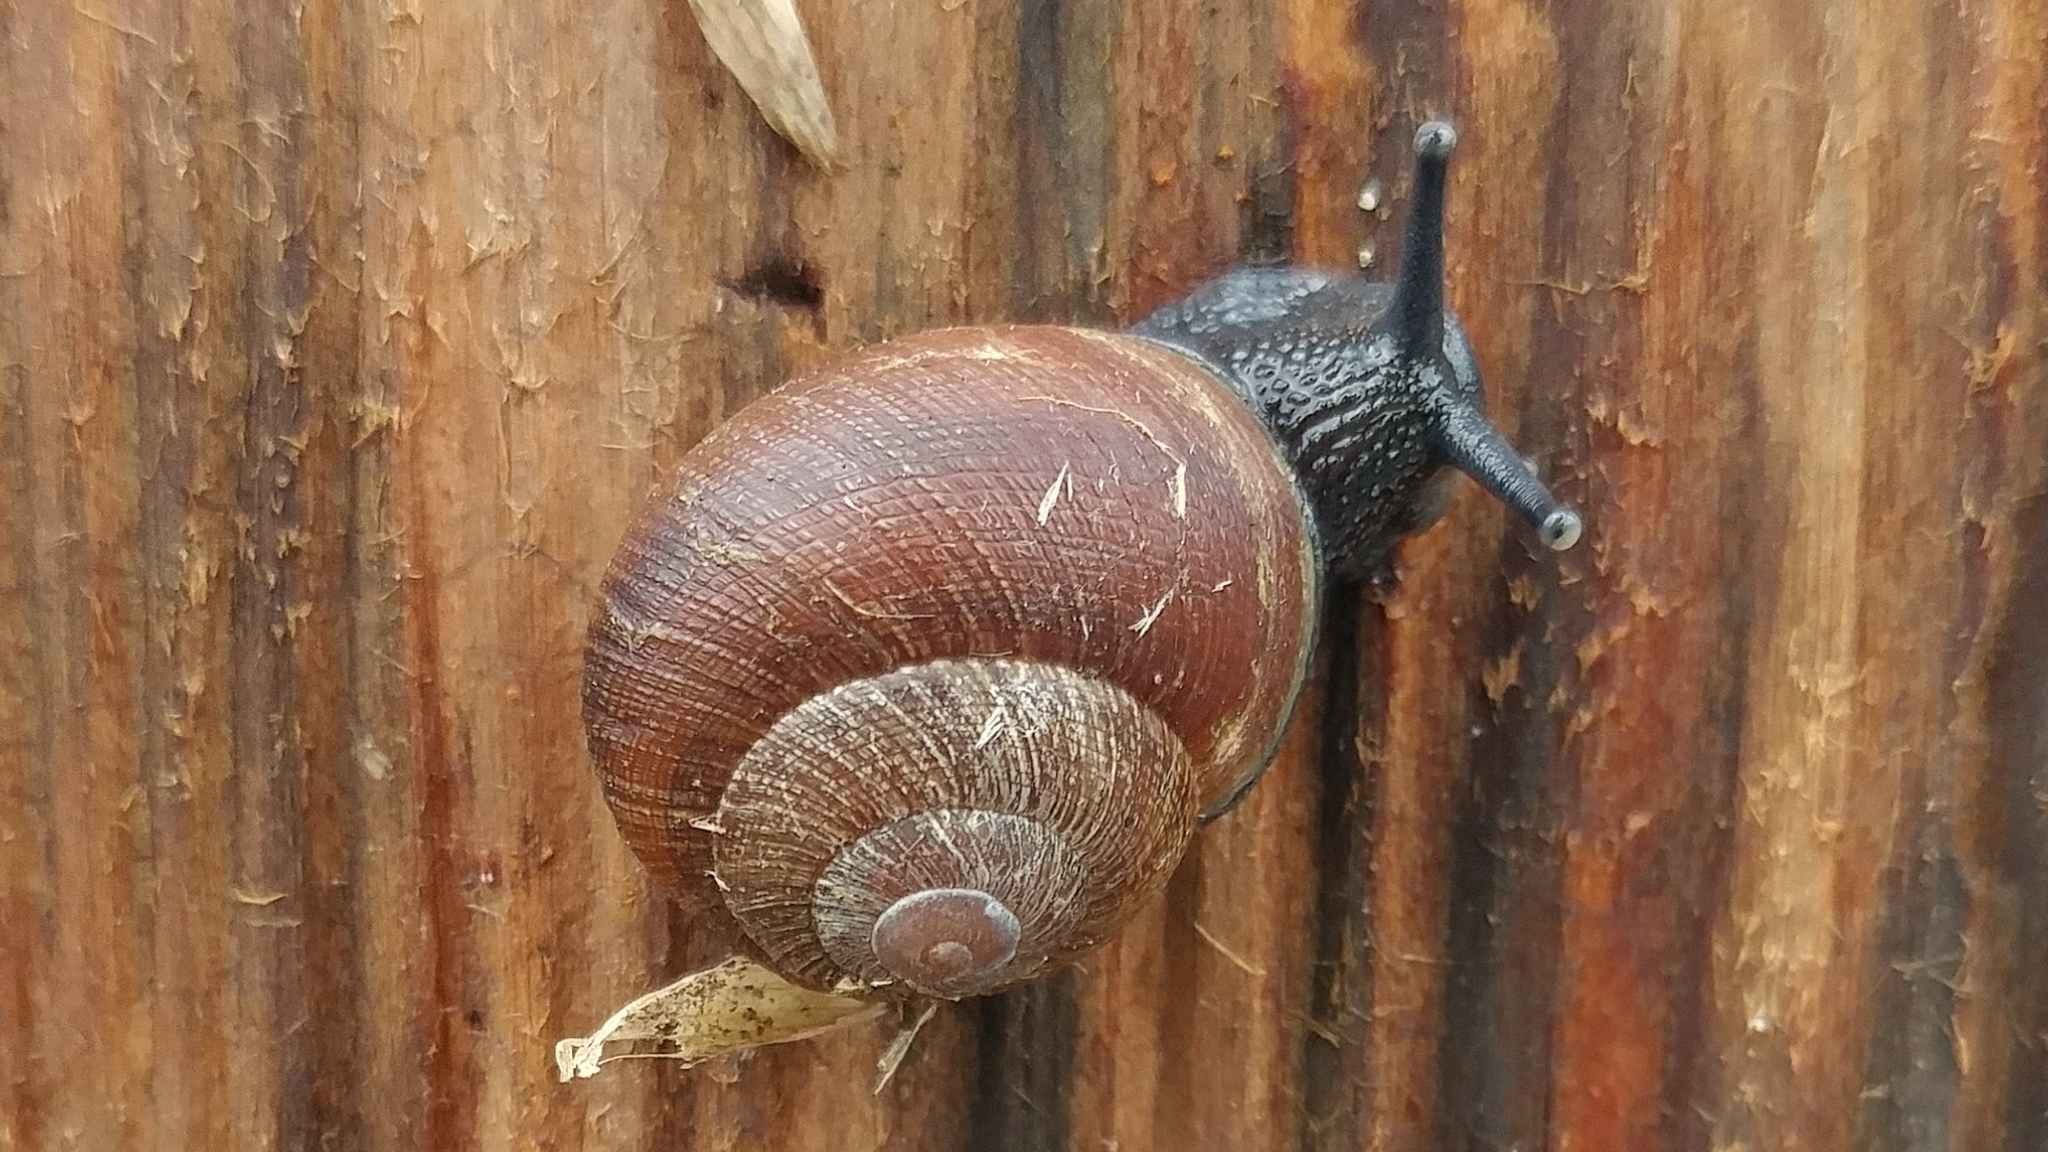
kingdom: Animalia
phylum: Mollusca
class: Gastropoda
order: Stylommatophora
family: Xanthonychidae
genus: Xerarionta
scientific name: Xerarionta intercisa
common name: Plain cactus snail
